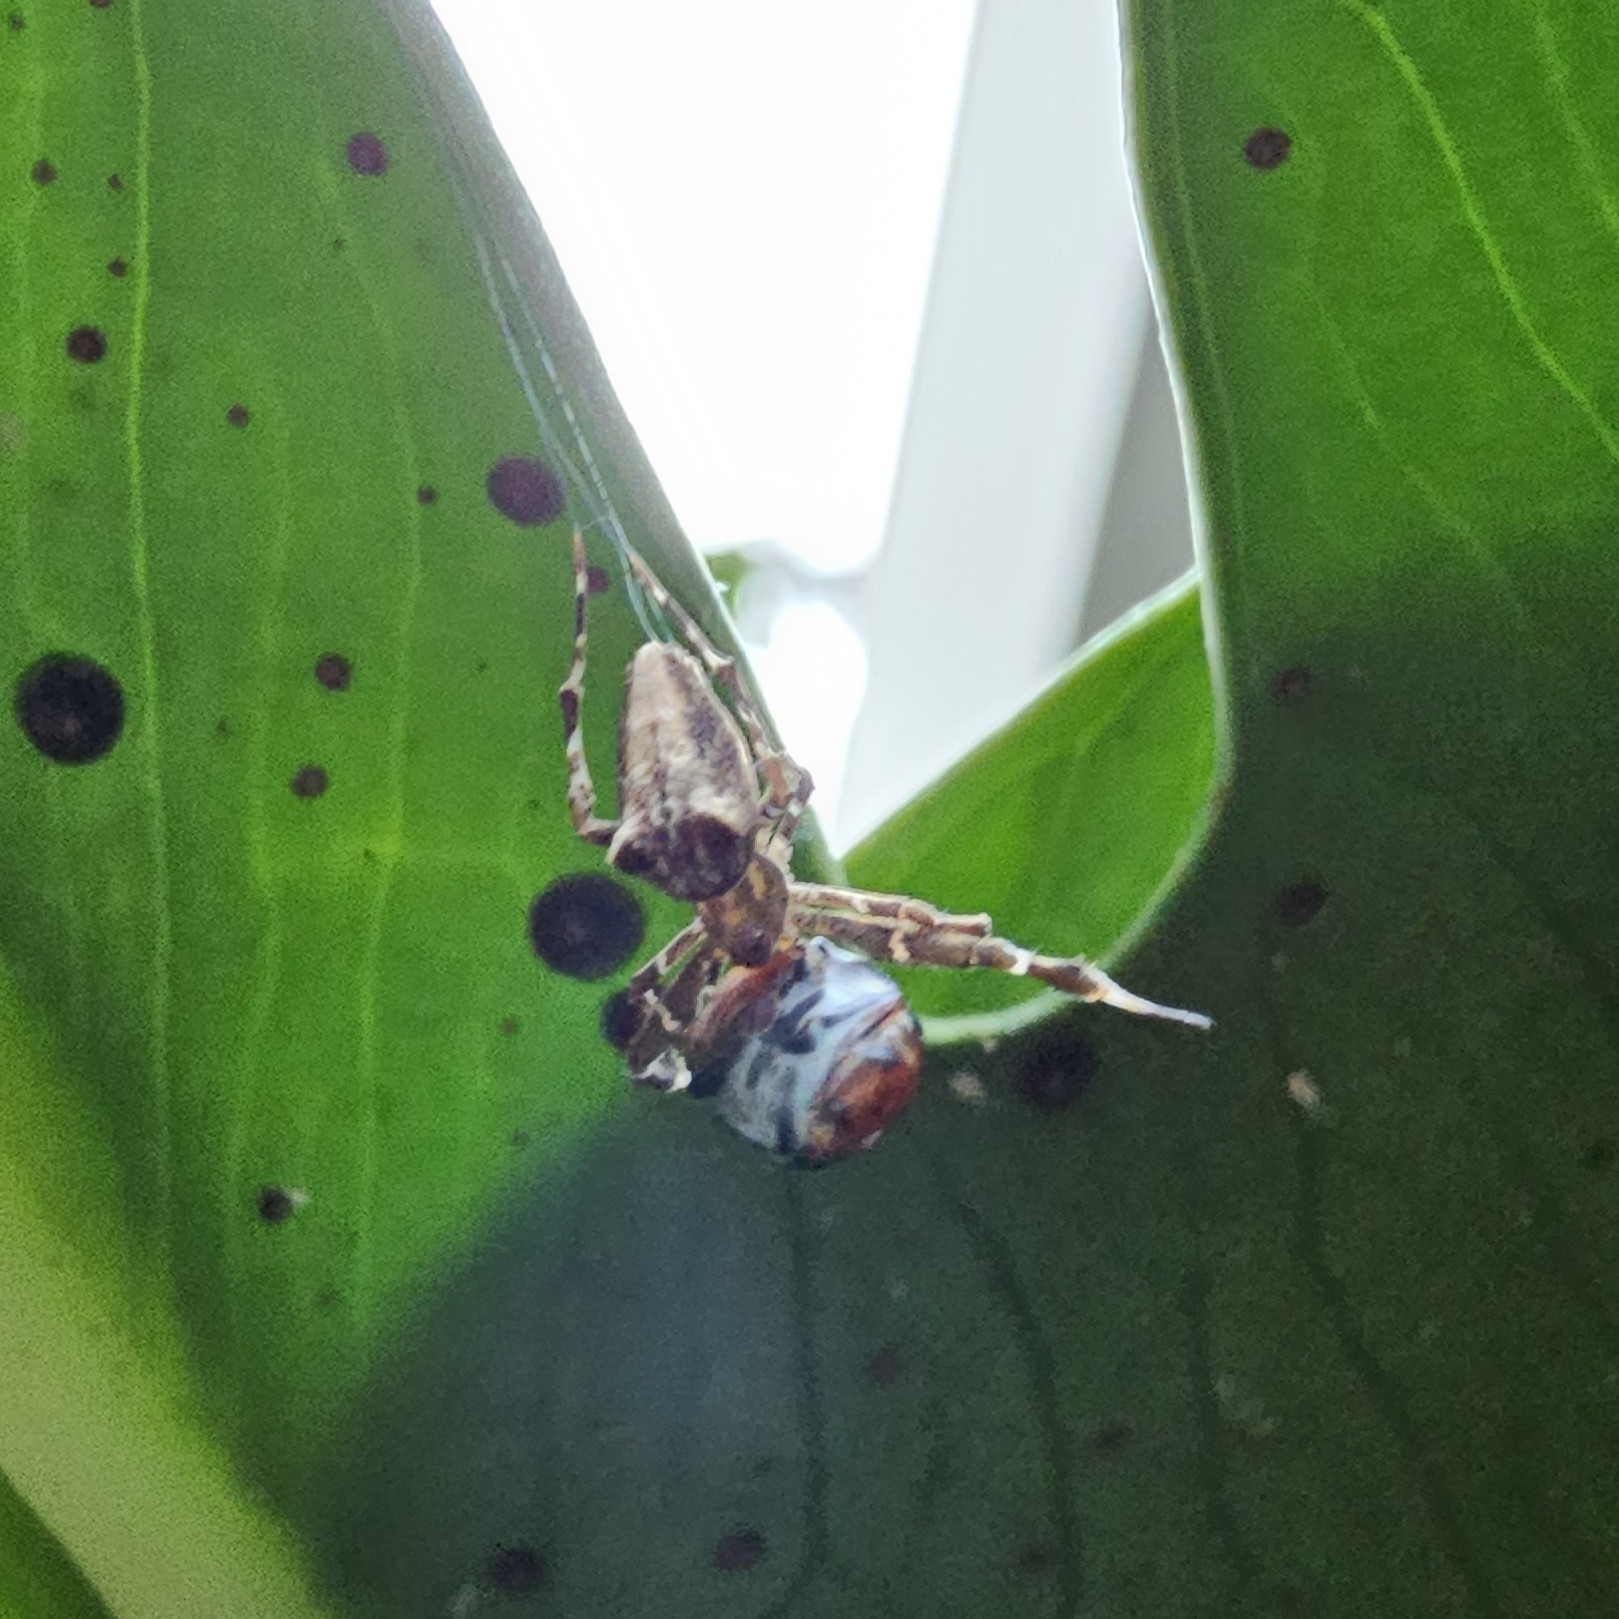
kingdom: Animalia
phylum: Arthropoda
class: Arachnida
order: Araneae
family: Uloboridae
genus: Uloborus
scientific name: Uloborus plumipes
